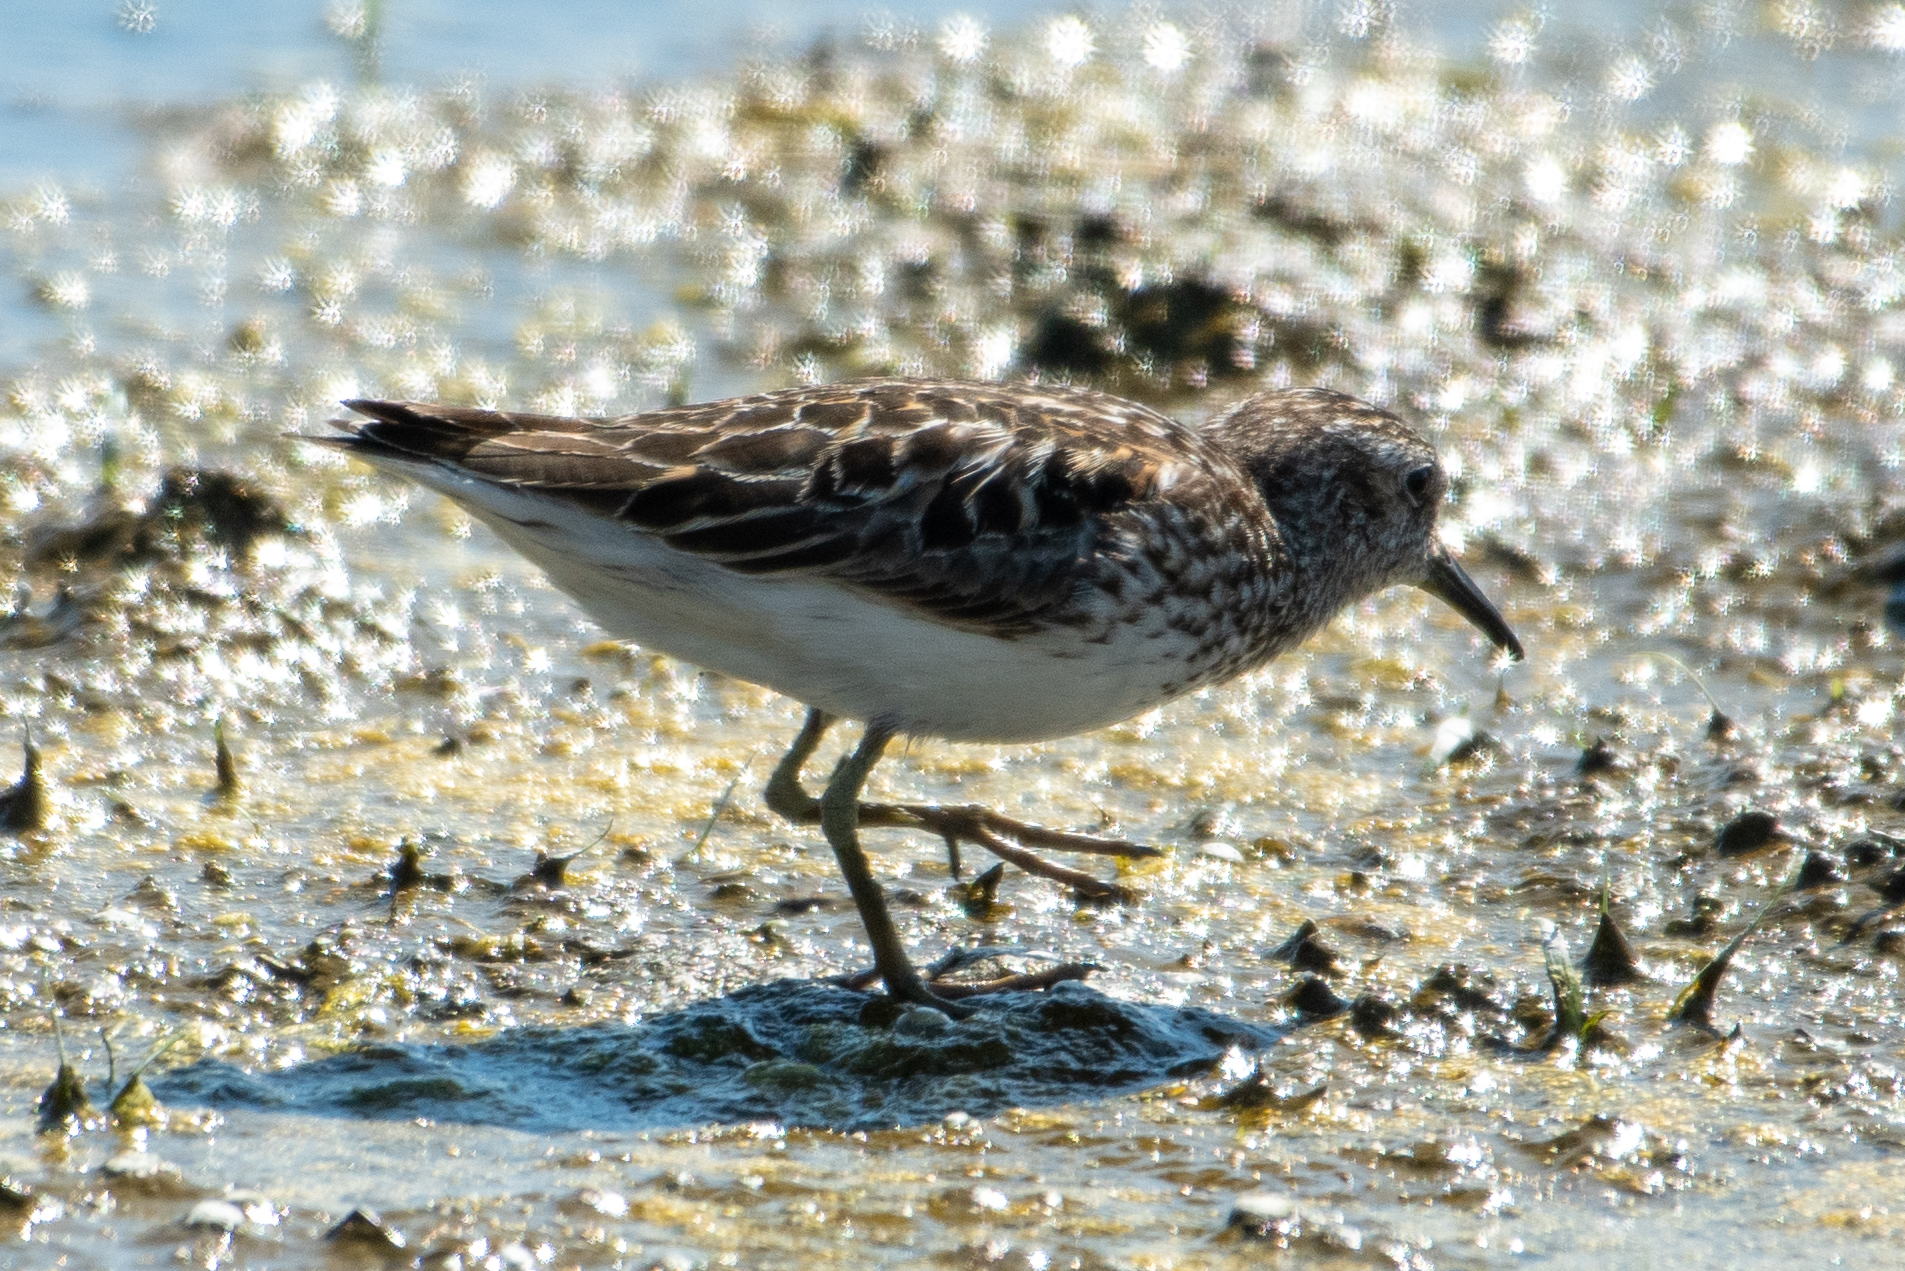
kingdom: Animalia
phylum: Chordata
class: Aves
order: Charadriiformes
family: Scolopacidae
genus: Calidris
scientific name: Calidris minutilla
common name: Least sandpiper
